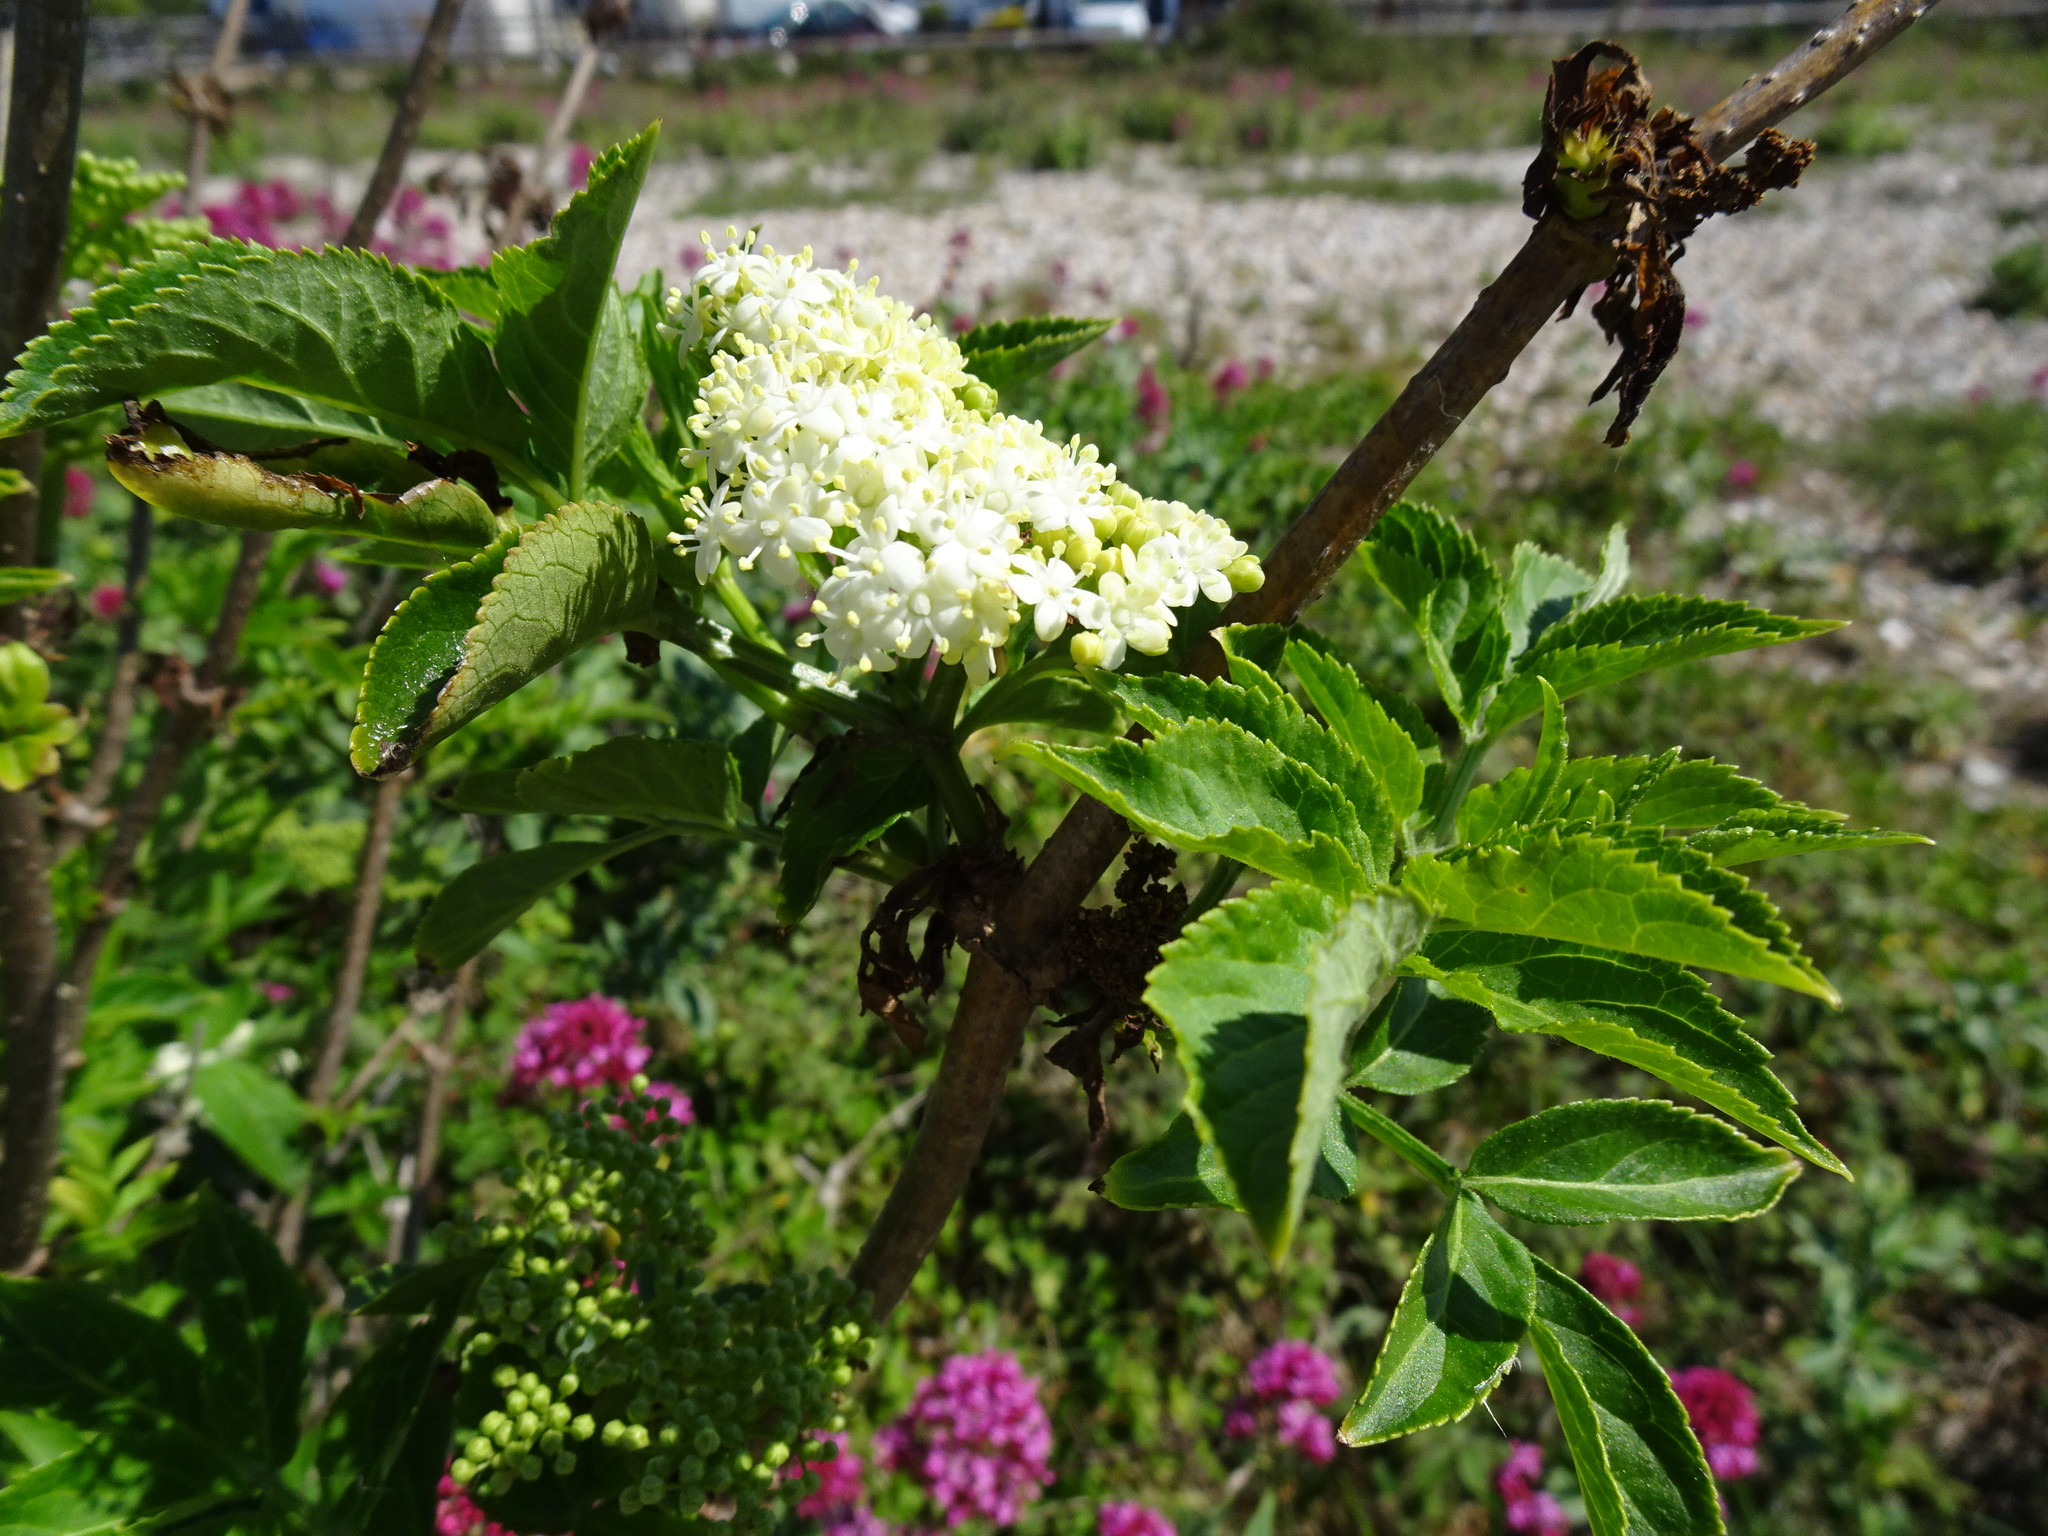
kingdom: Plantae
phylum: Tracheophyta
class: Magnoliopsida
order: Dipsacales
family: Viburnaceae
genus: Sambucus
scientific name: Sambucus nigra
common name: Elder
